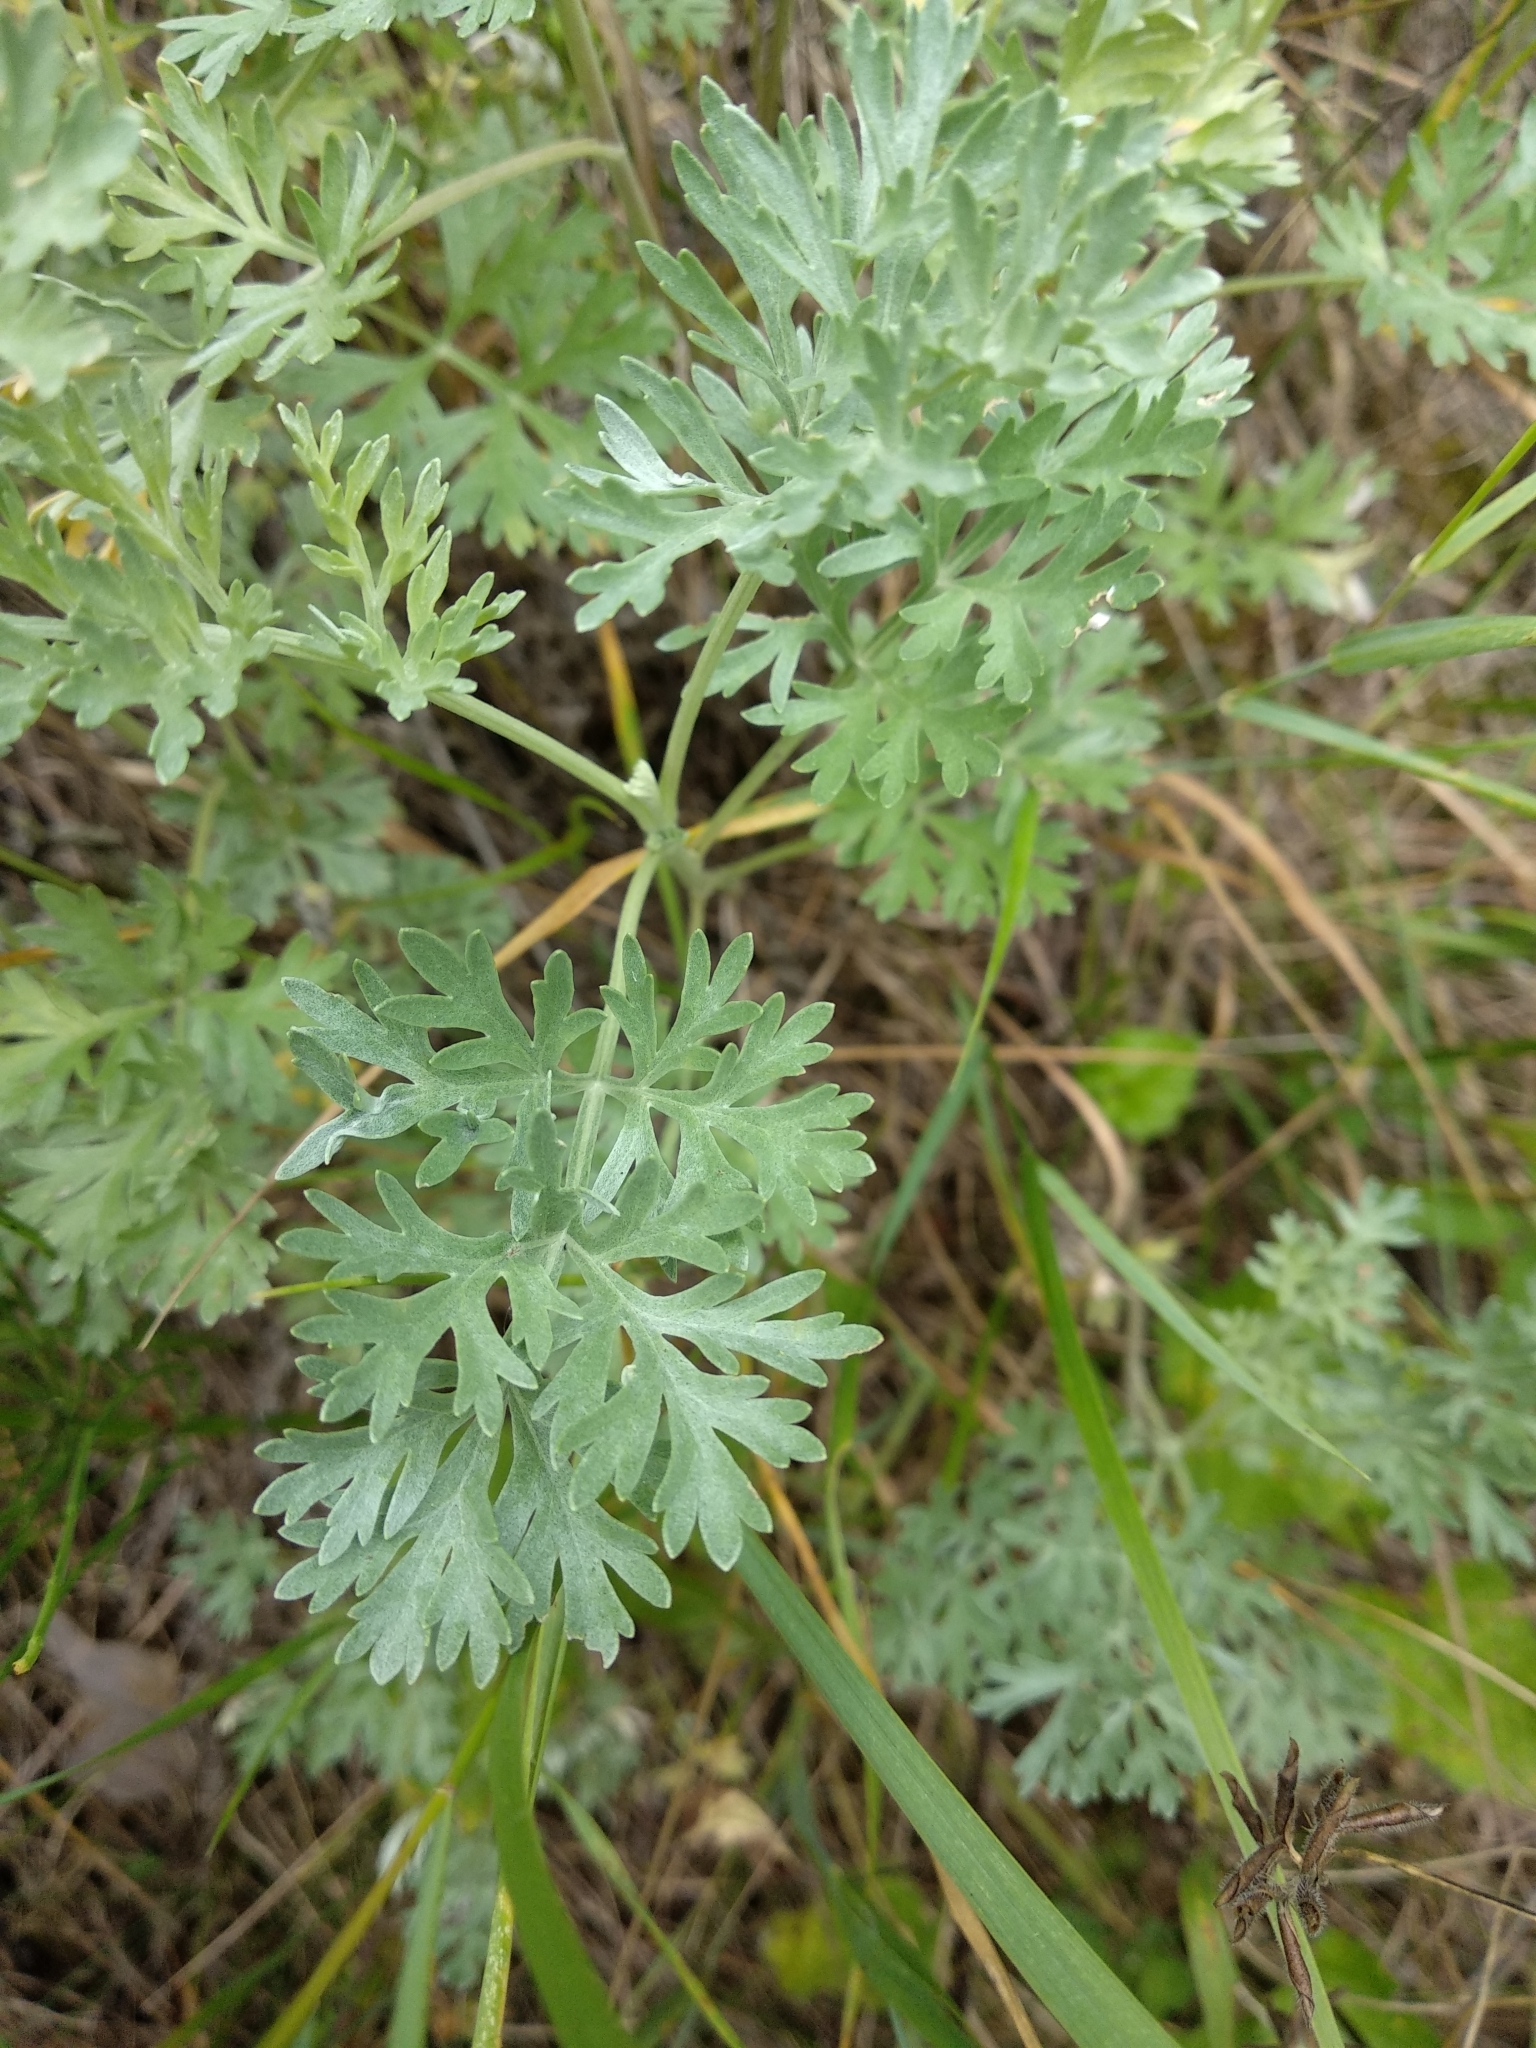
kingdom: Plantae
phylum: Tracheophyta
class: Magnoliopsida
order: Asterales
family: Asteraceae
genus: Artemisia
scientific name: Artemisia absinthium
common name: Wormwood
